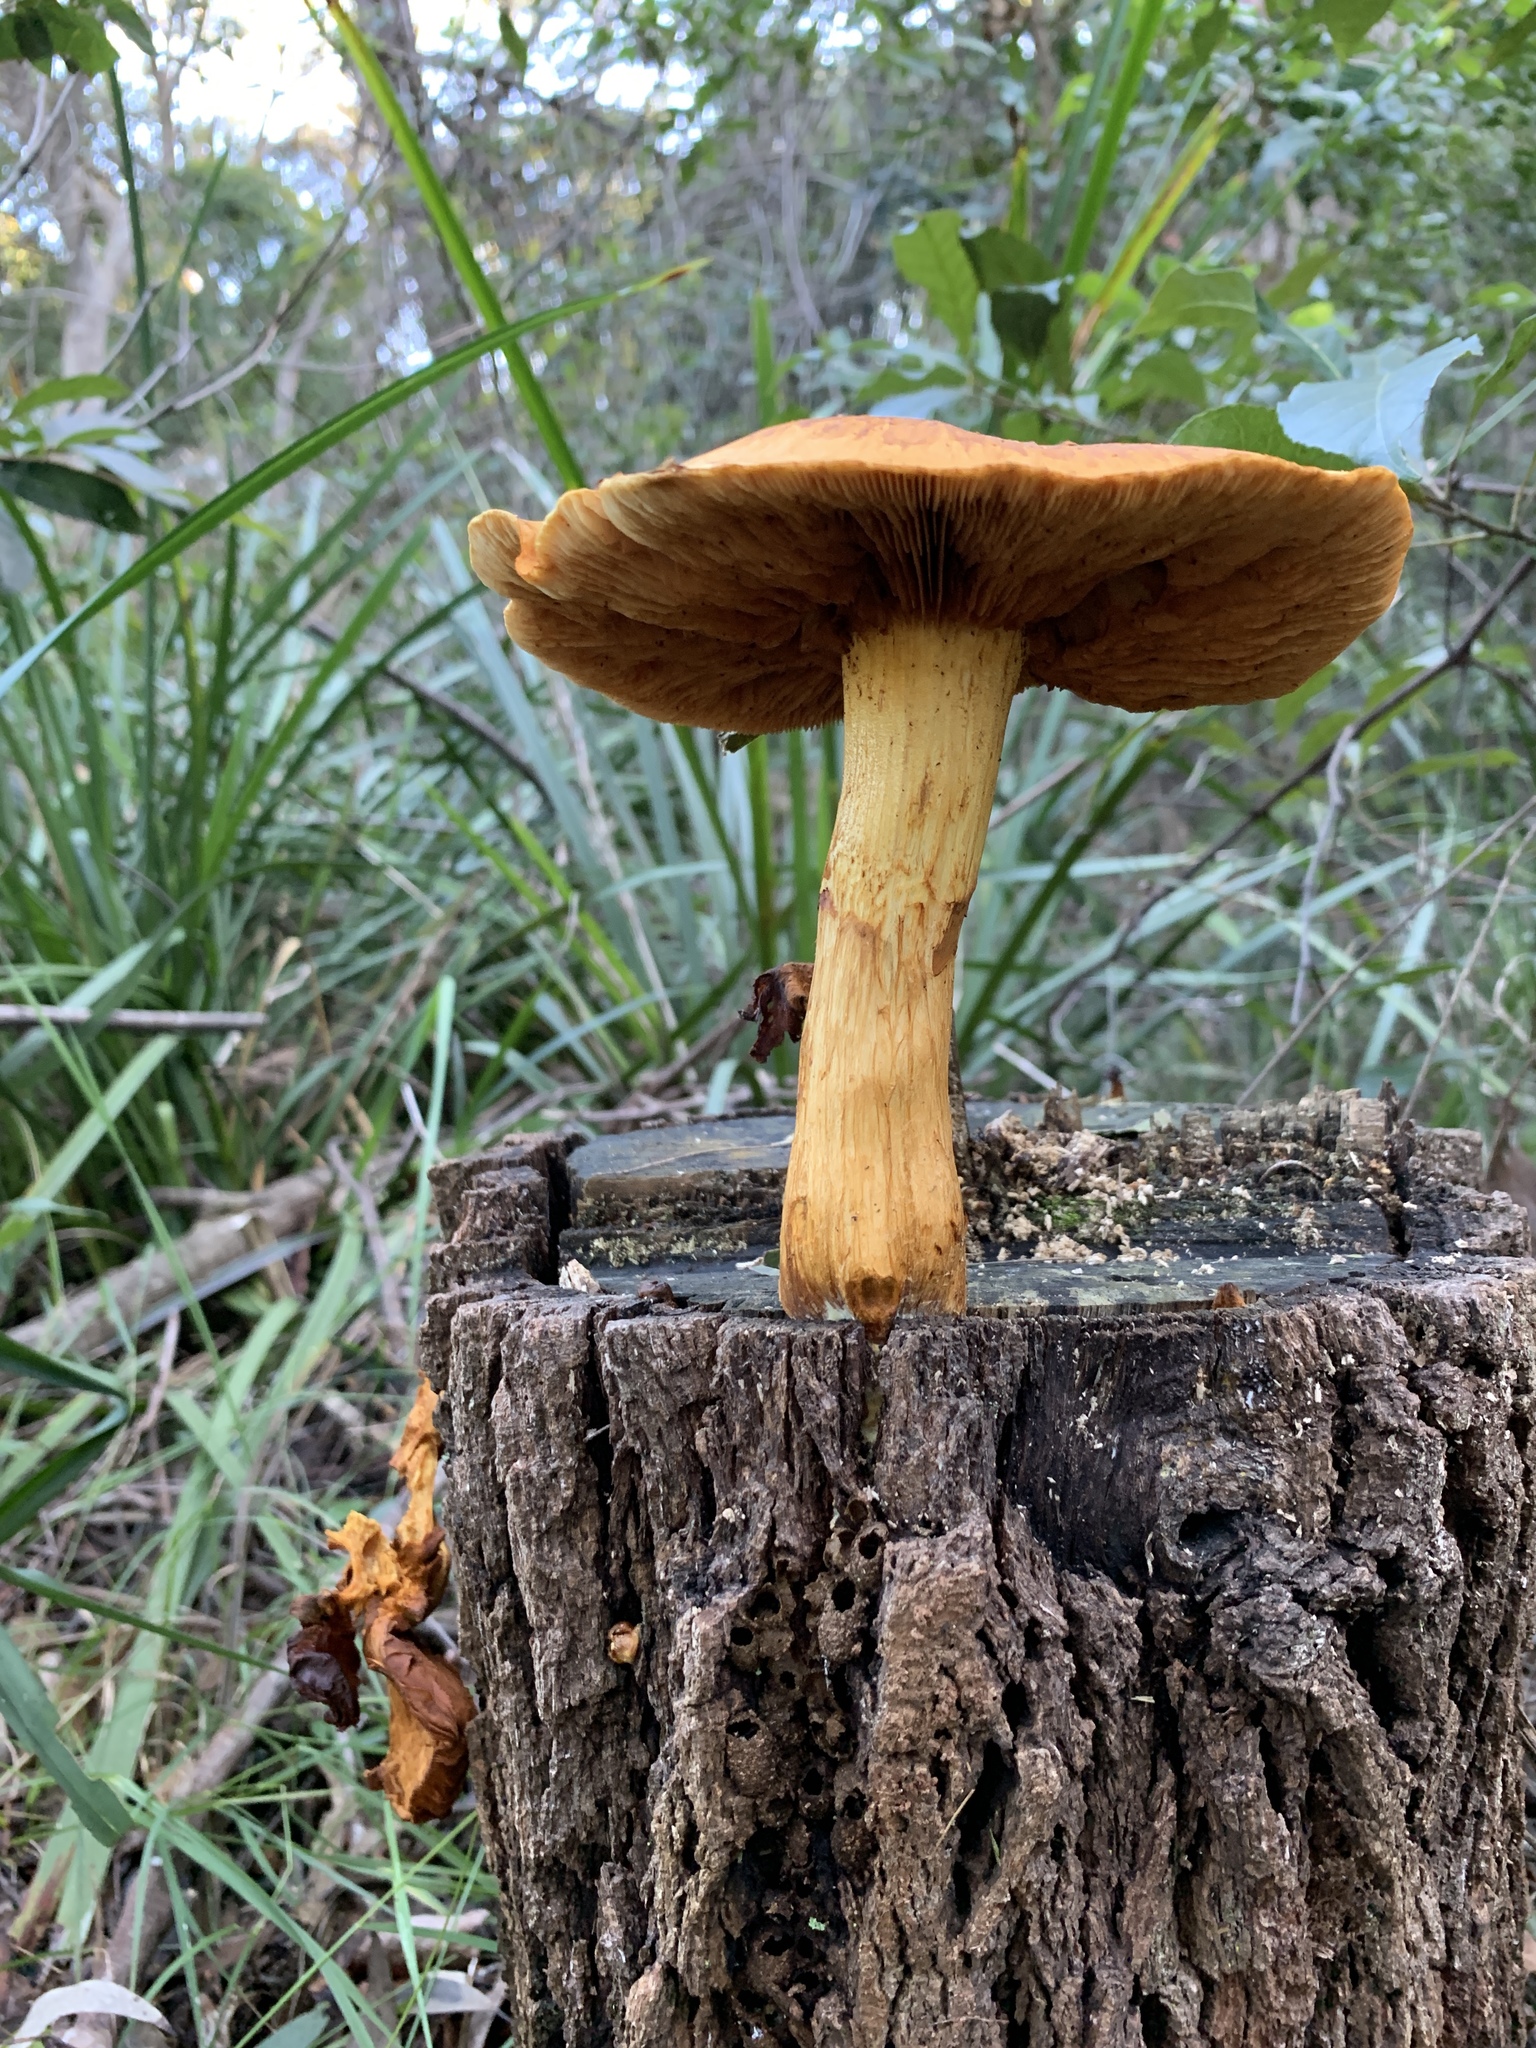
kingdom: Fungi
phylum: Basidiomycota
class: Agaricomycetes
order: Agaricales
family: Hymenogastraceae
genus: Gymnopilus
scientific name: Gymnopilus junonius
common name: Spectacular rustgill
